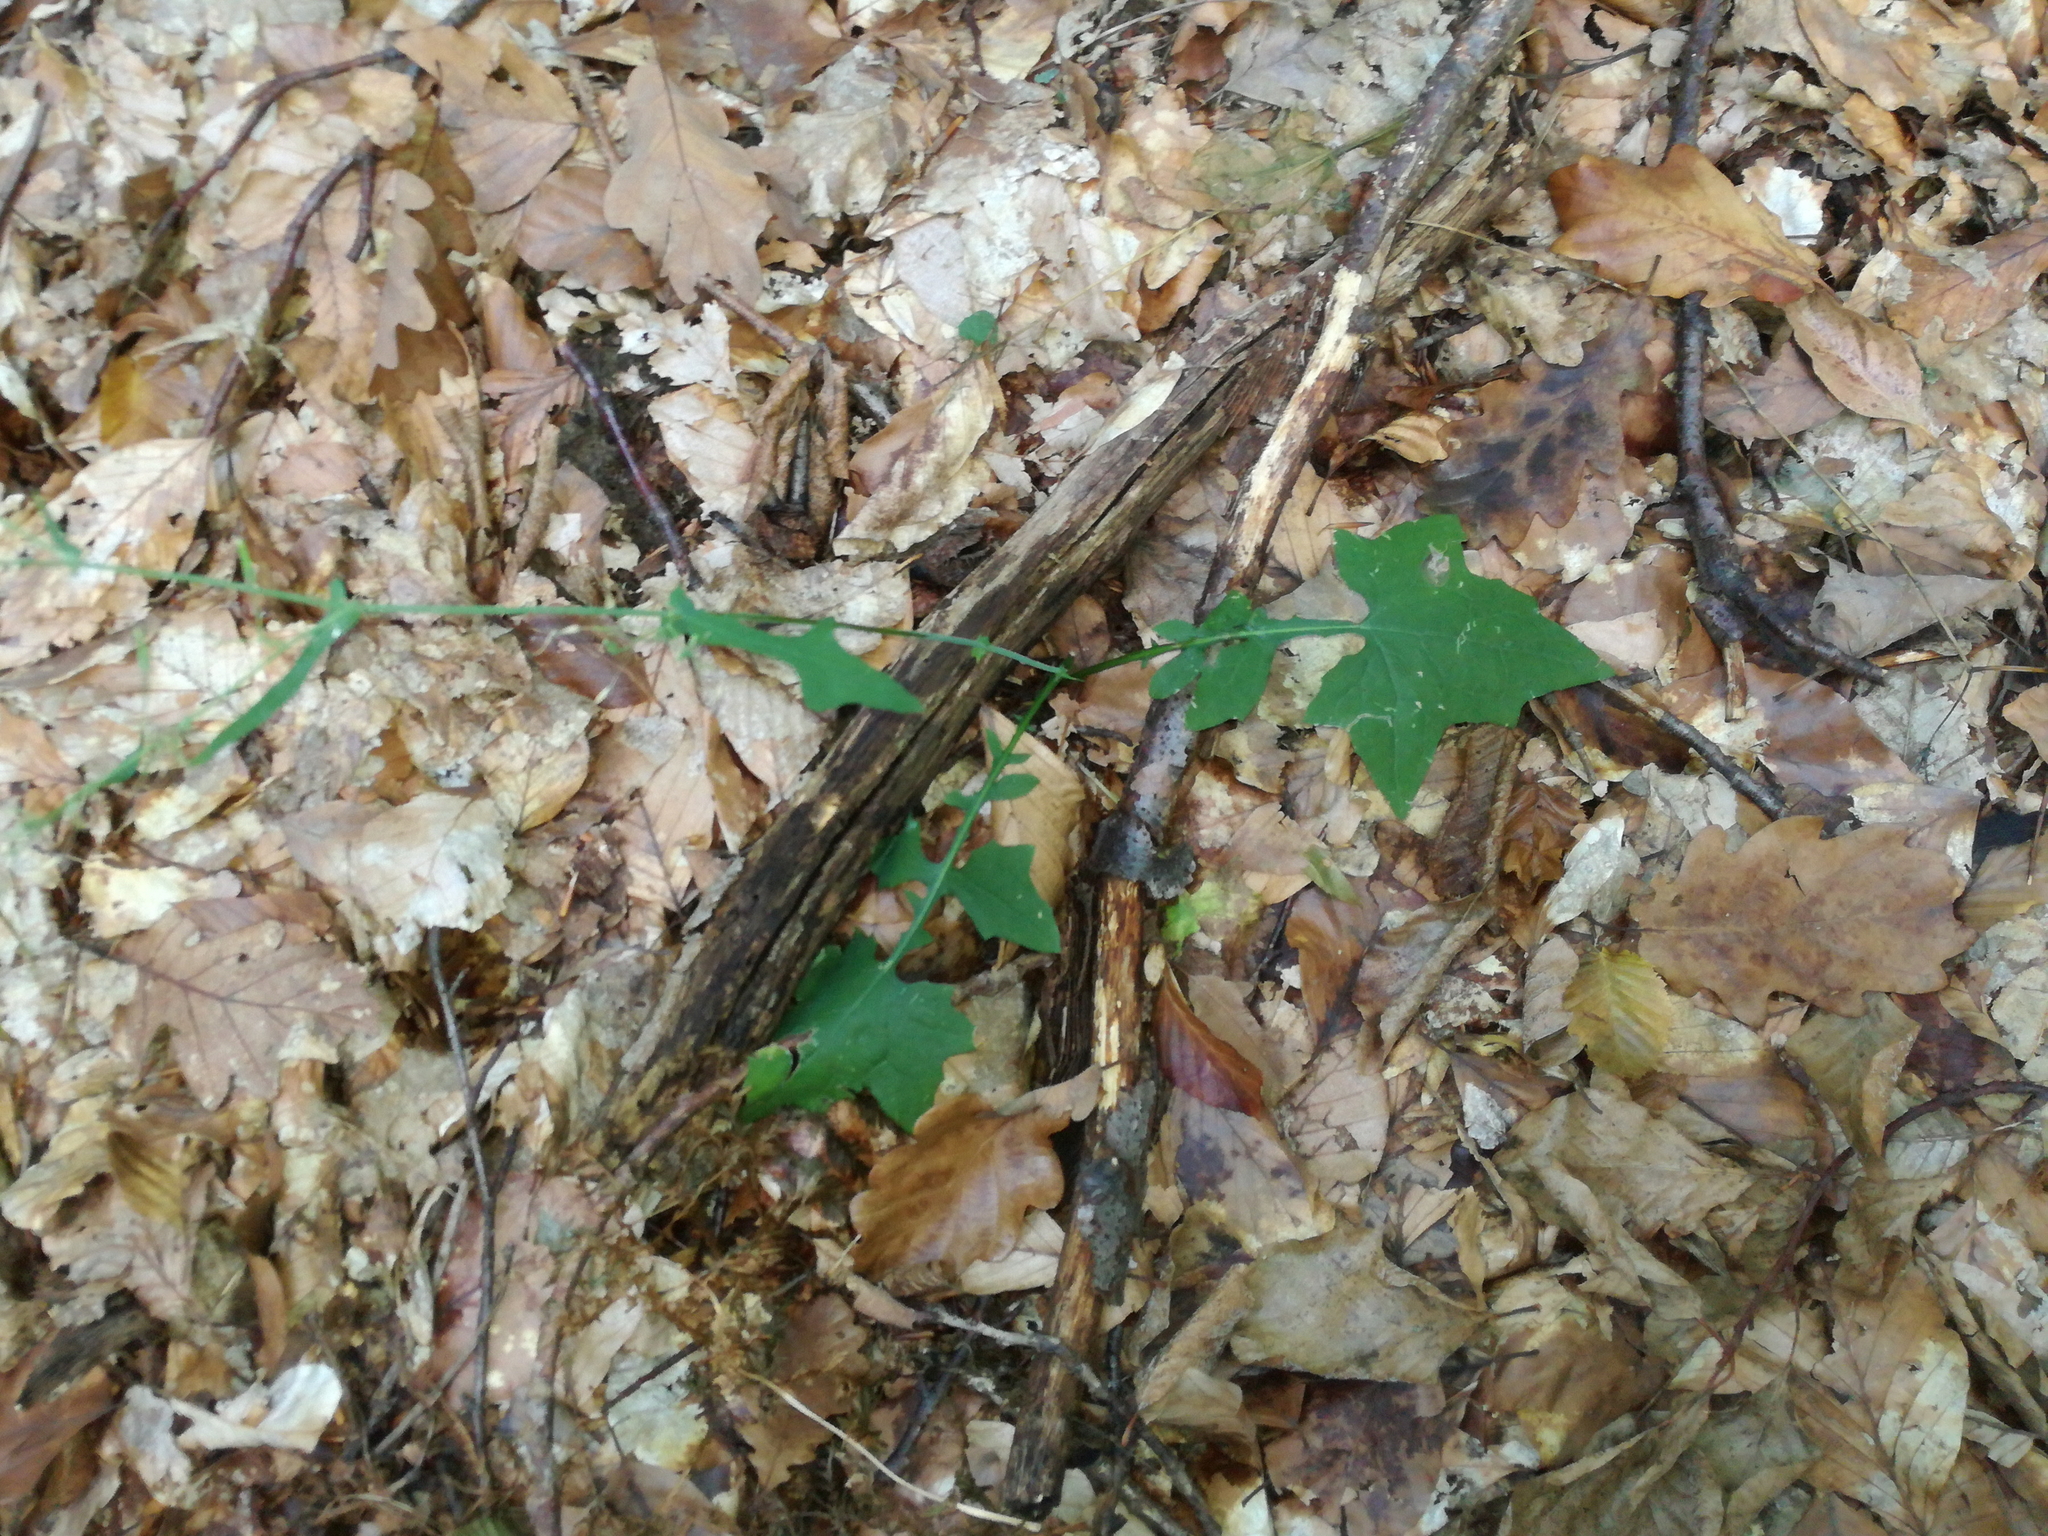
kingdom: Plantae
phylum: Tracheophyta
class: Magnoliopsida
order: Asterales
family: Asteraceae
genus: Mycelis
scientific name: Mycelis muralis
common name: Wall lettuce
